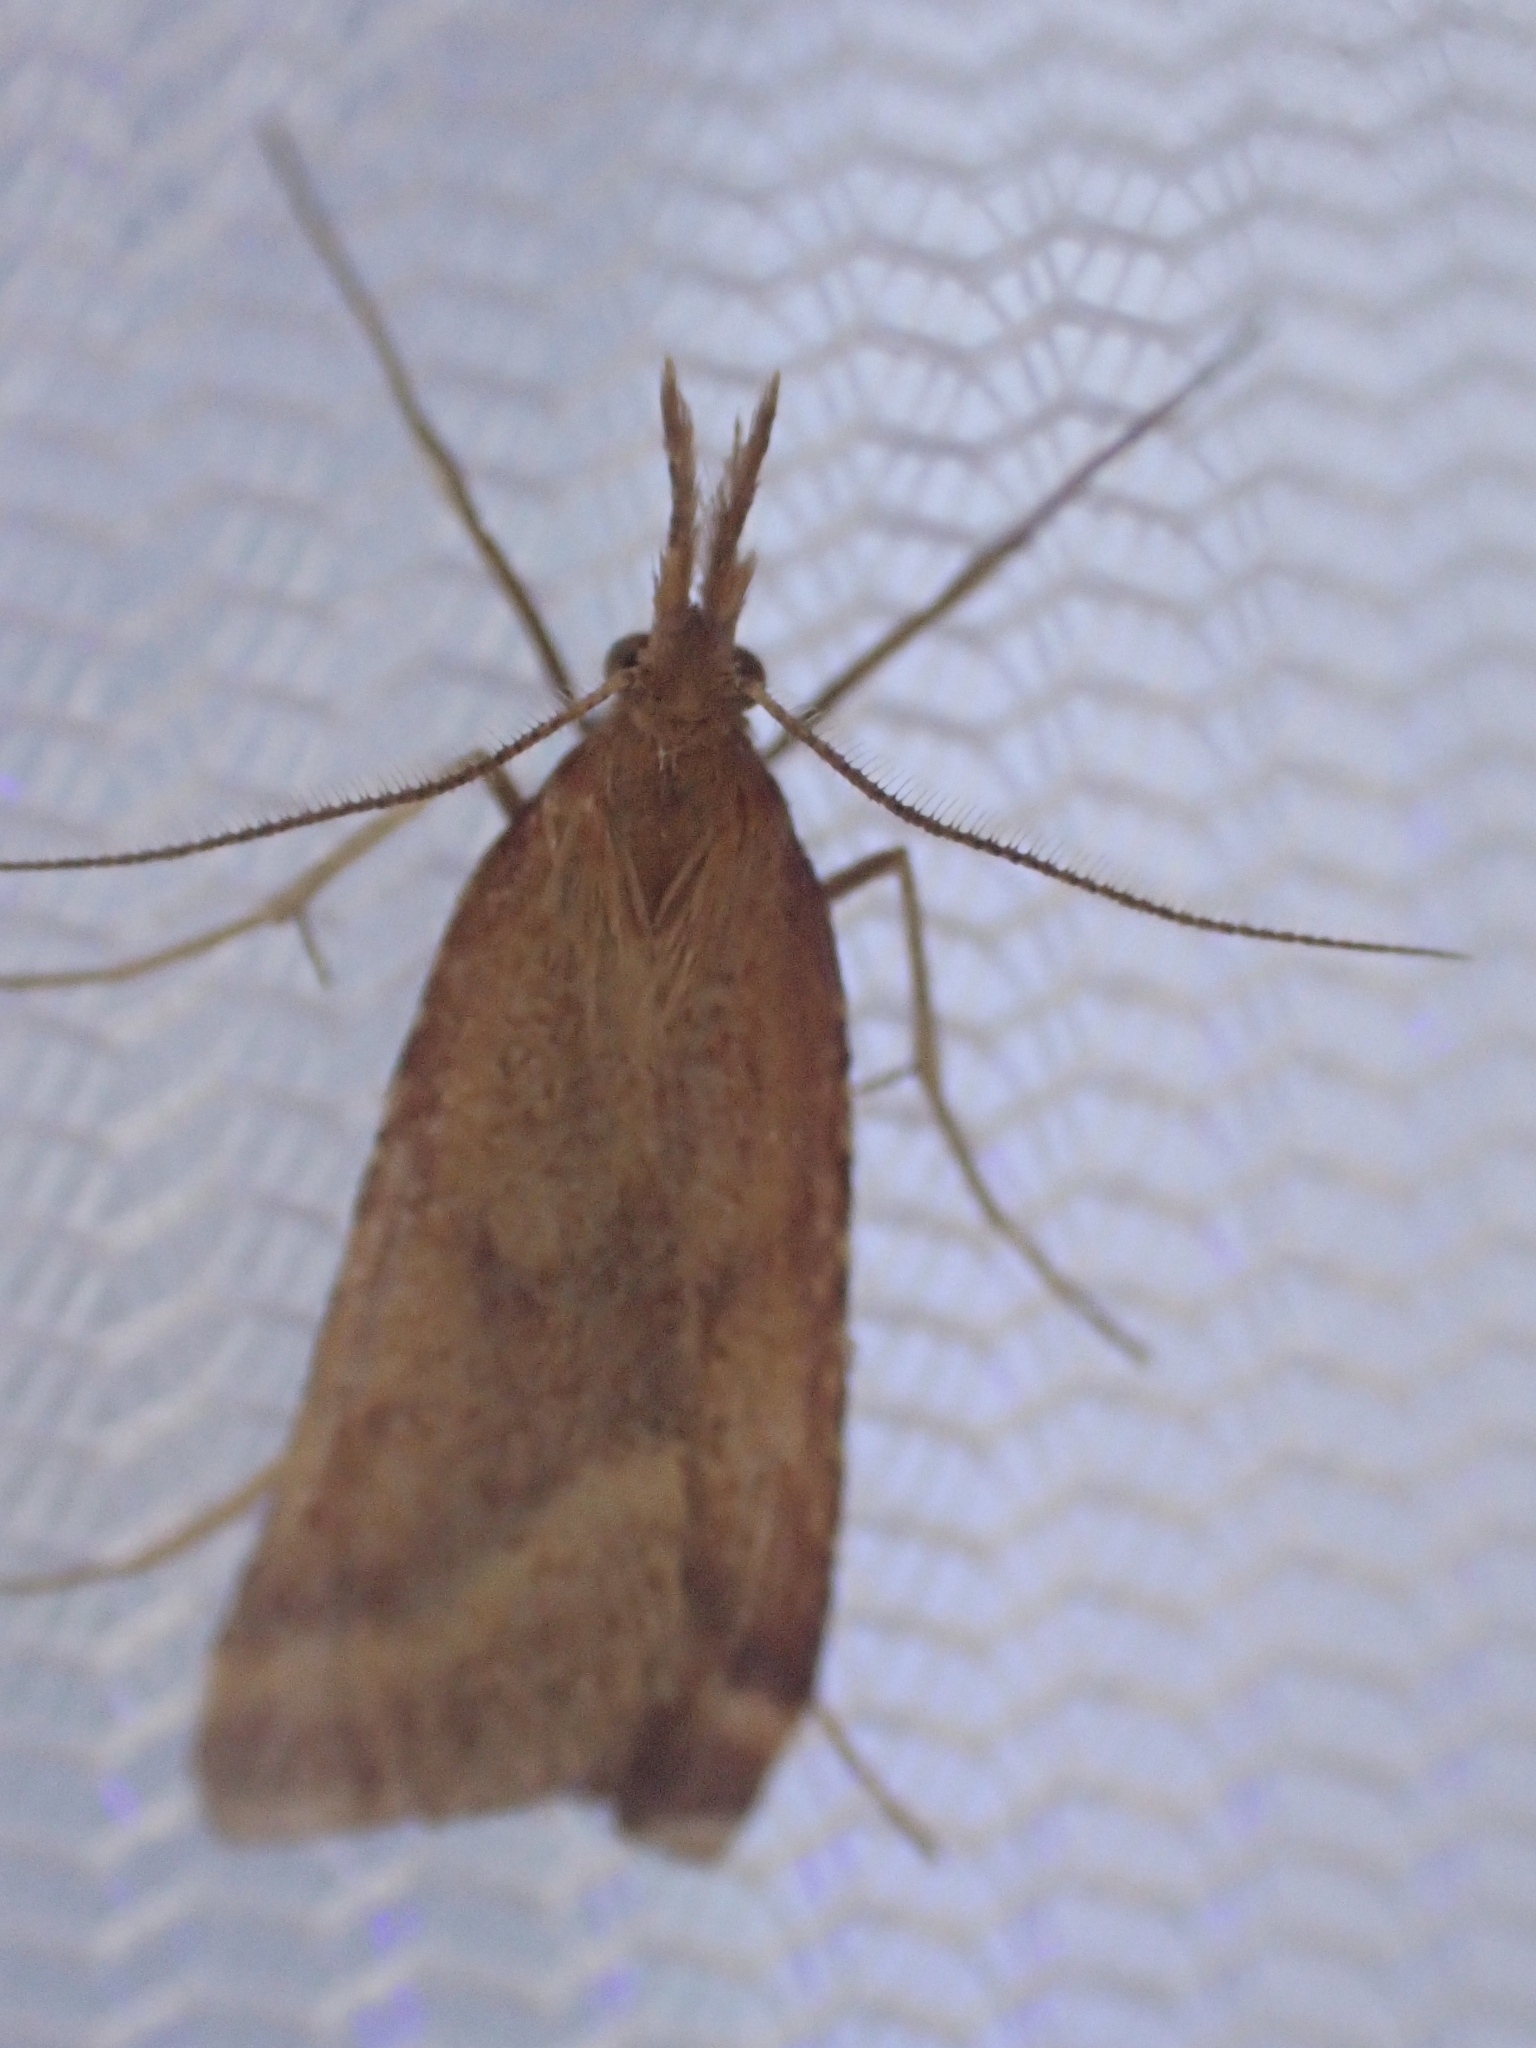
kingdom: Animalia
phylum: Arthropoda
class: Insecta
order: Lepidoptera
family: Pyralidae
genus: Synaphe
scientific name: Synaphe punctalis
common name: Long-legged tabby
